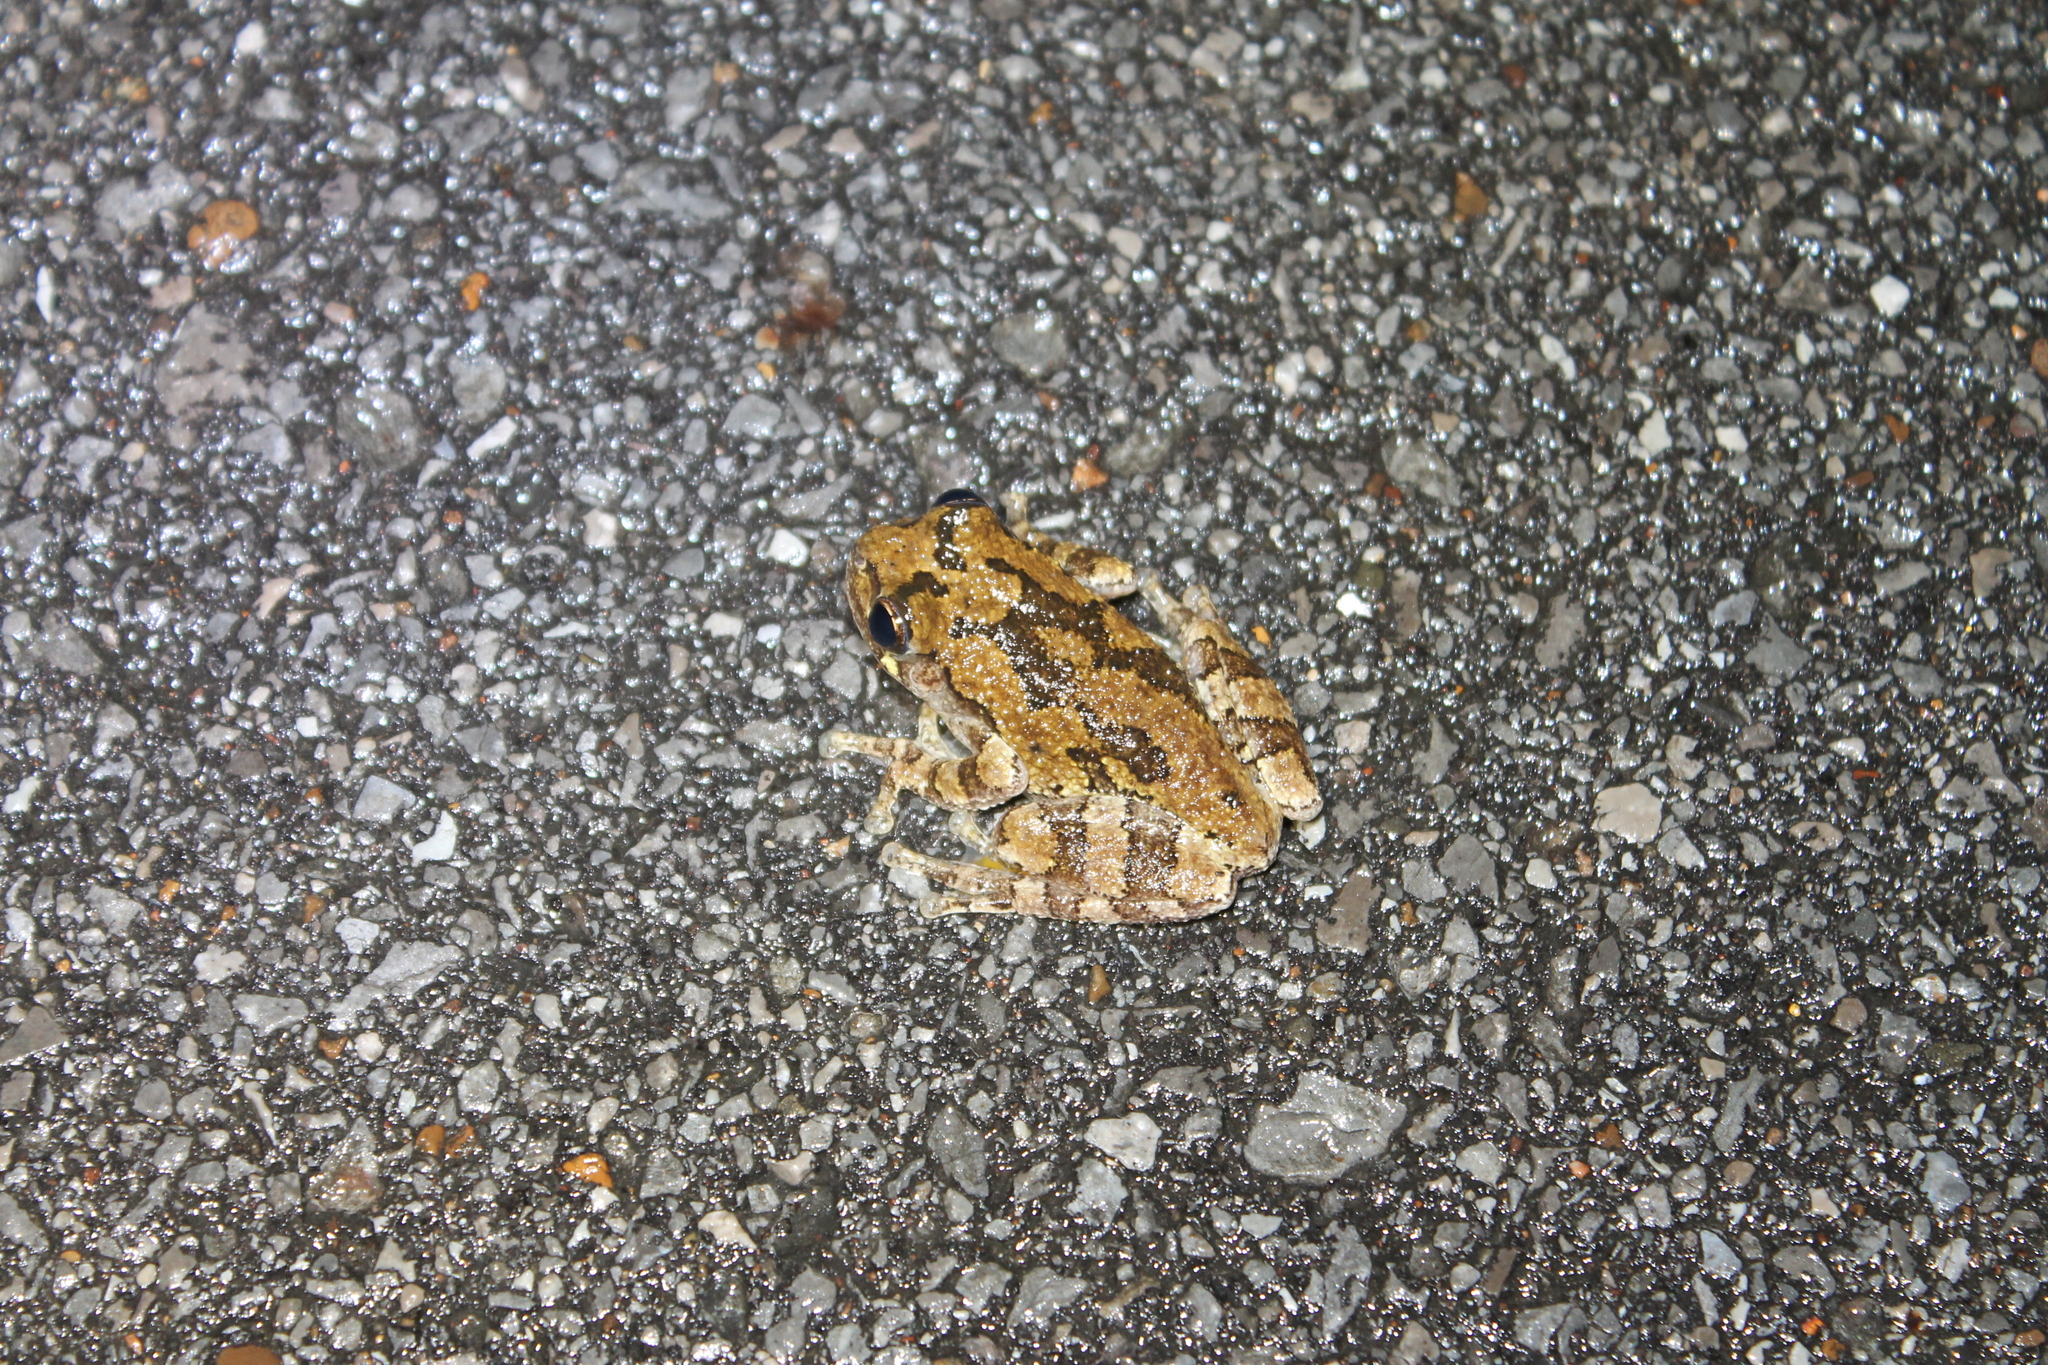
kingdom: Animalia
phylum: Chordata
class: Amphibia
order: Anura
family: Hylidae
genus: Dryophytes
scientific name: Dryophytes chrysoscelis
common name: Cope's gray treefrog
